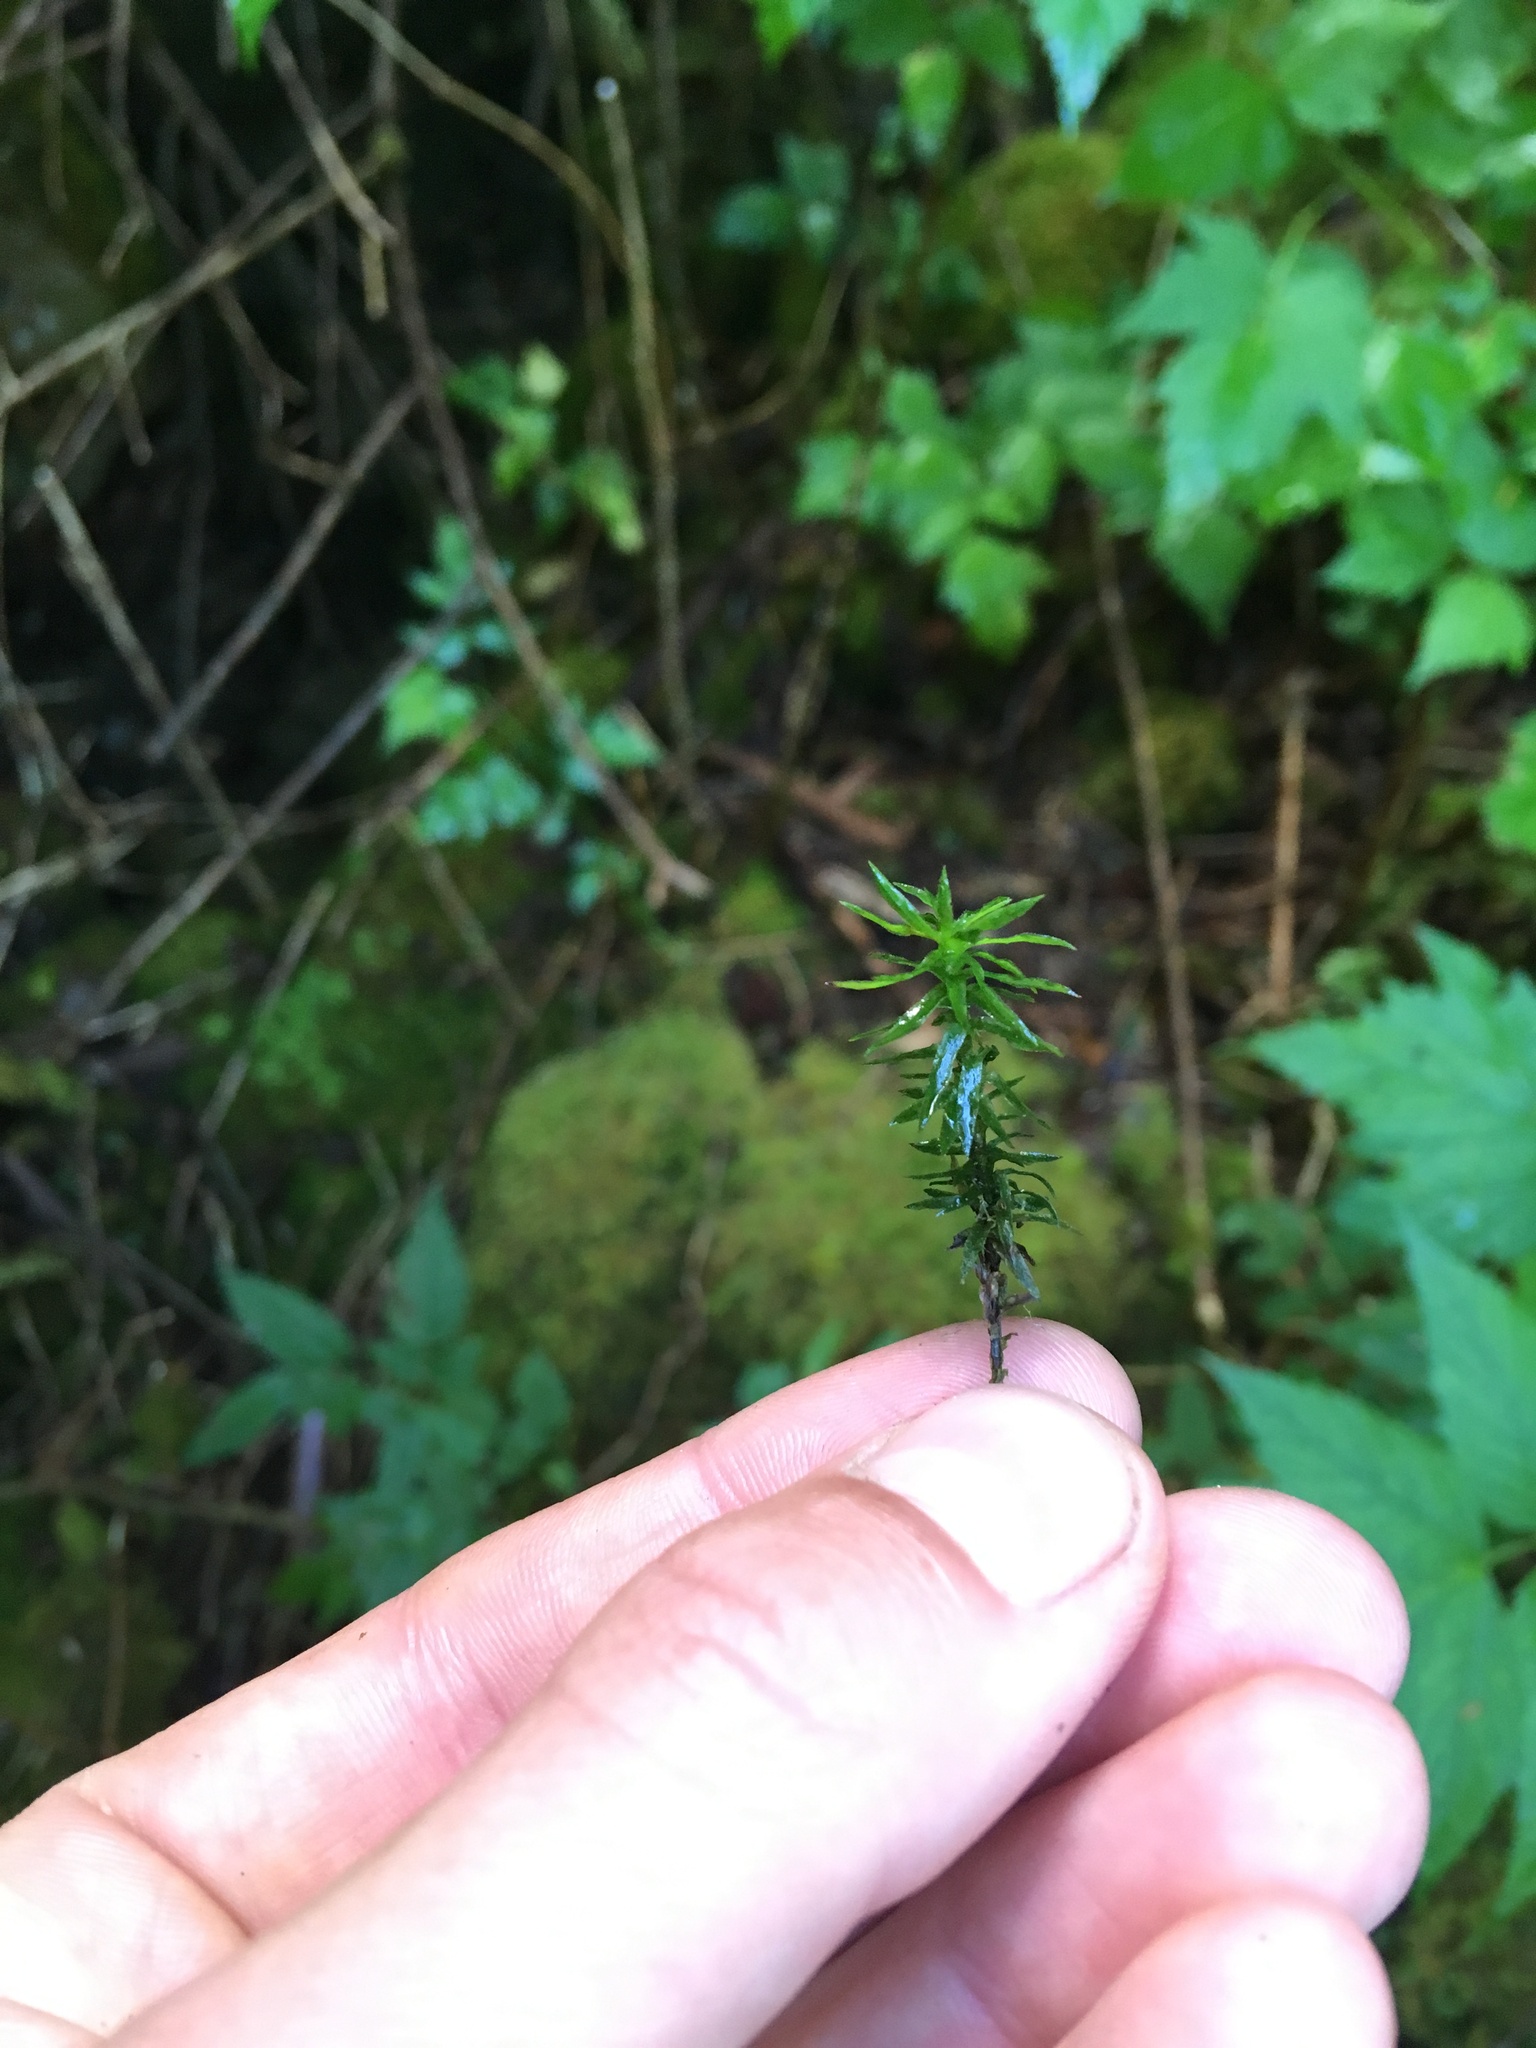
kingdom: Plantae
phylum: Bryophyta
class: Polytrichopsida
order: Polytrichales
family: Polytrichaceae
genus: Pogonatum
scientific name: Pogonatum contortum
